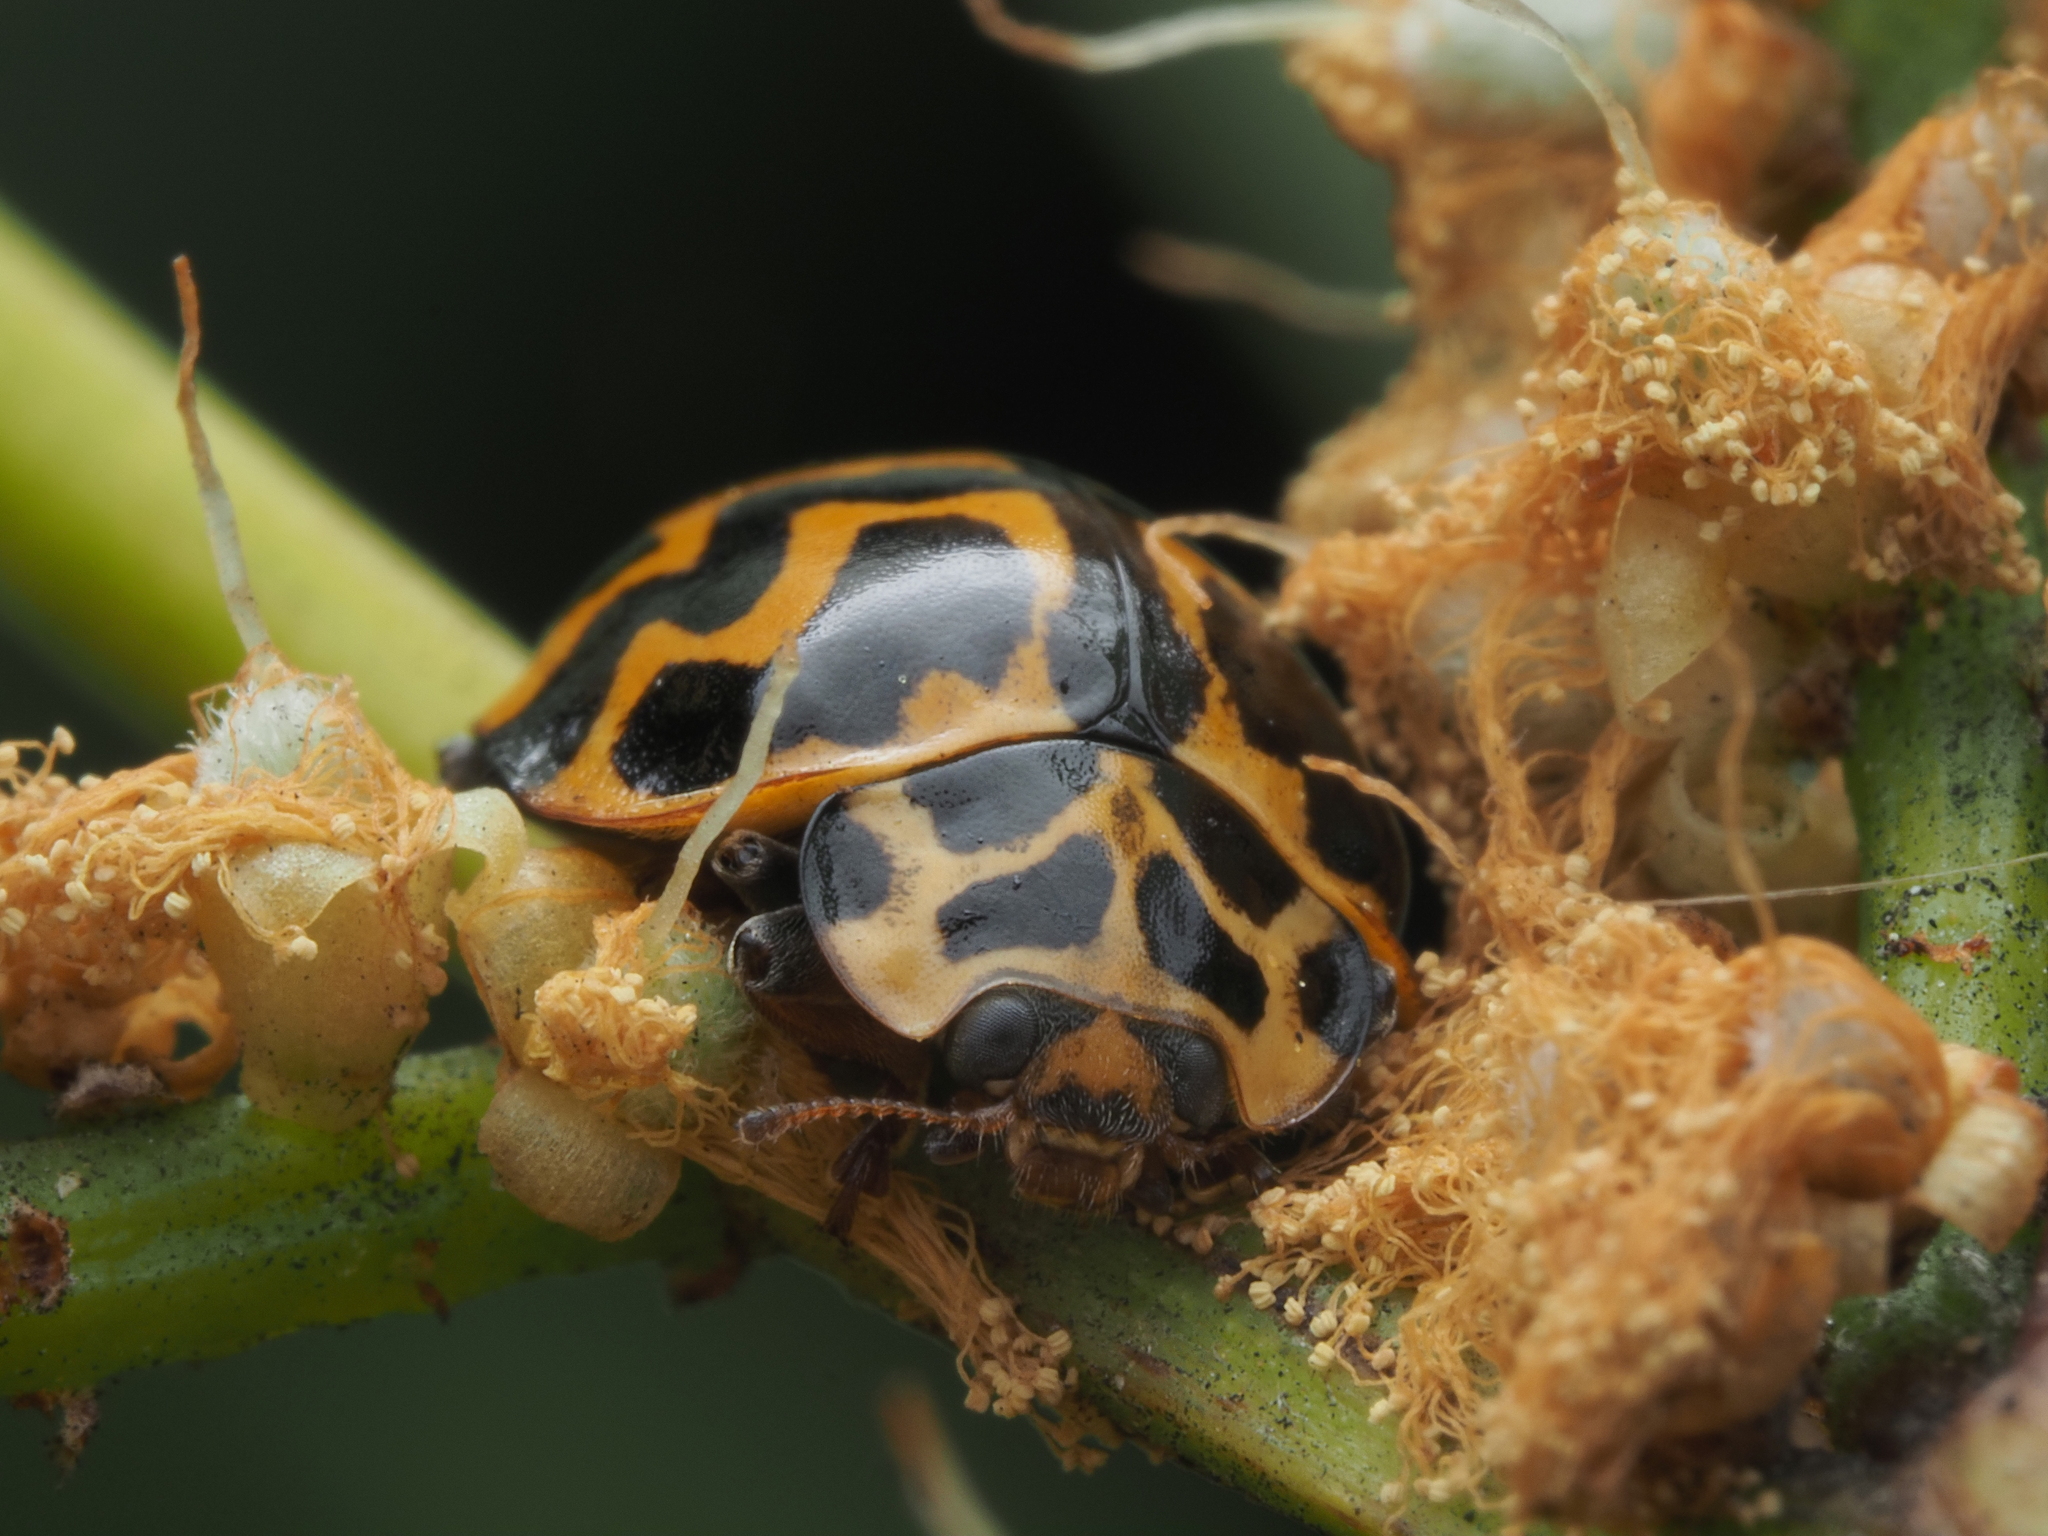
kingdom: Animalia
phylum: Arthropoda
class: Insecta
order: Coleoptera
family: Coccinellidae
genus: Cleobora
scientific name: Cleobora
